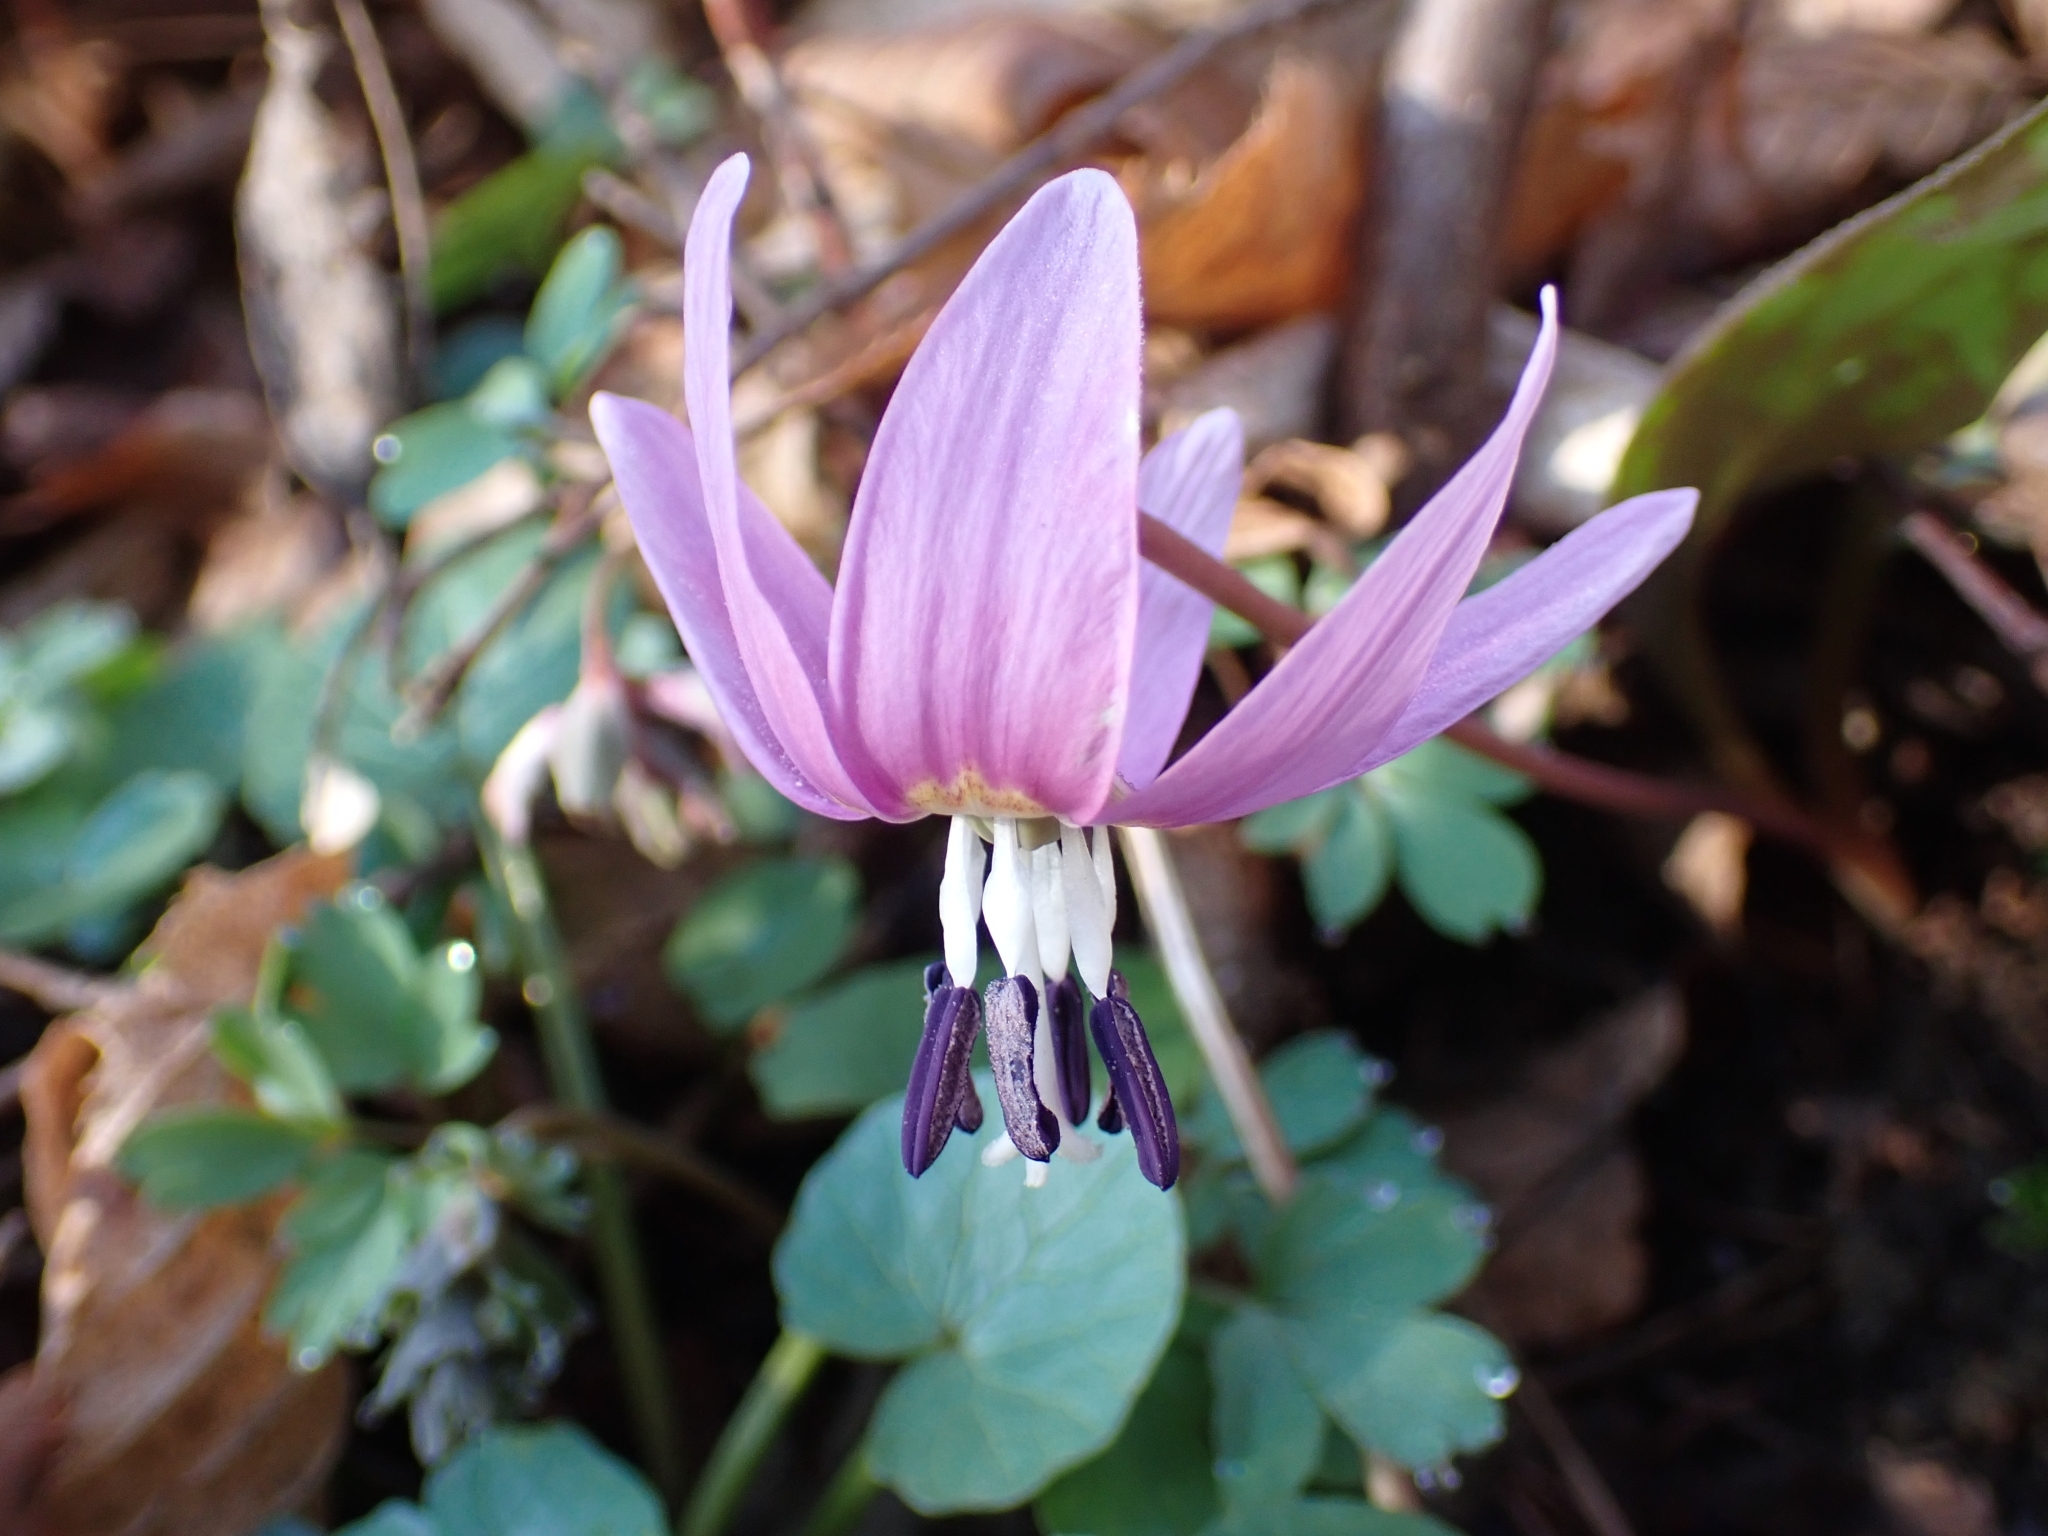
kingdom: Plantae
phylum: Tracheophyta
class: Liliopsida
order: Liliales
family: Liliaceae
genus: Erythronium
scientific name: Erythronium dens-canis
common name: Dog's-tooth-violet
